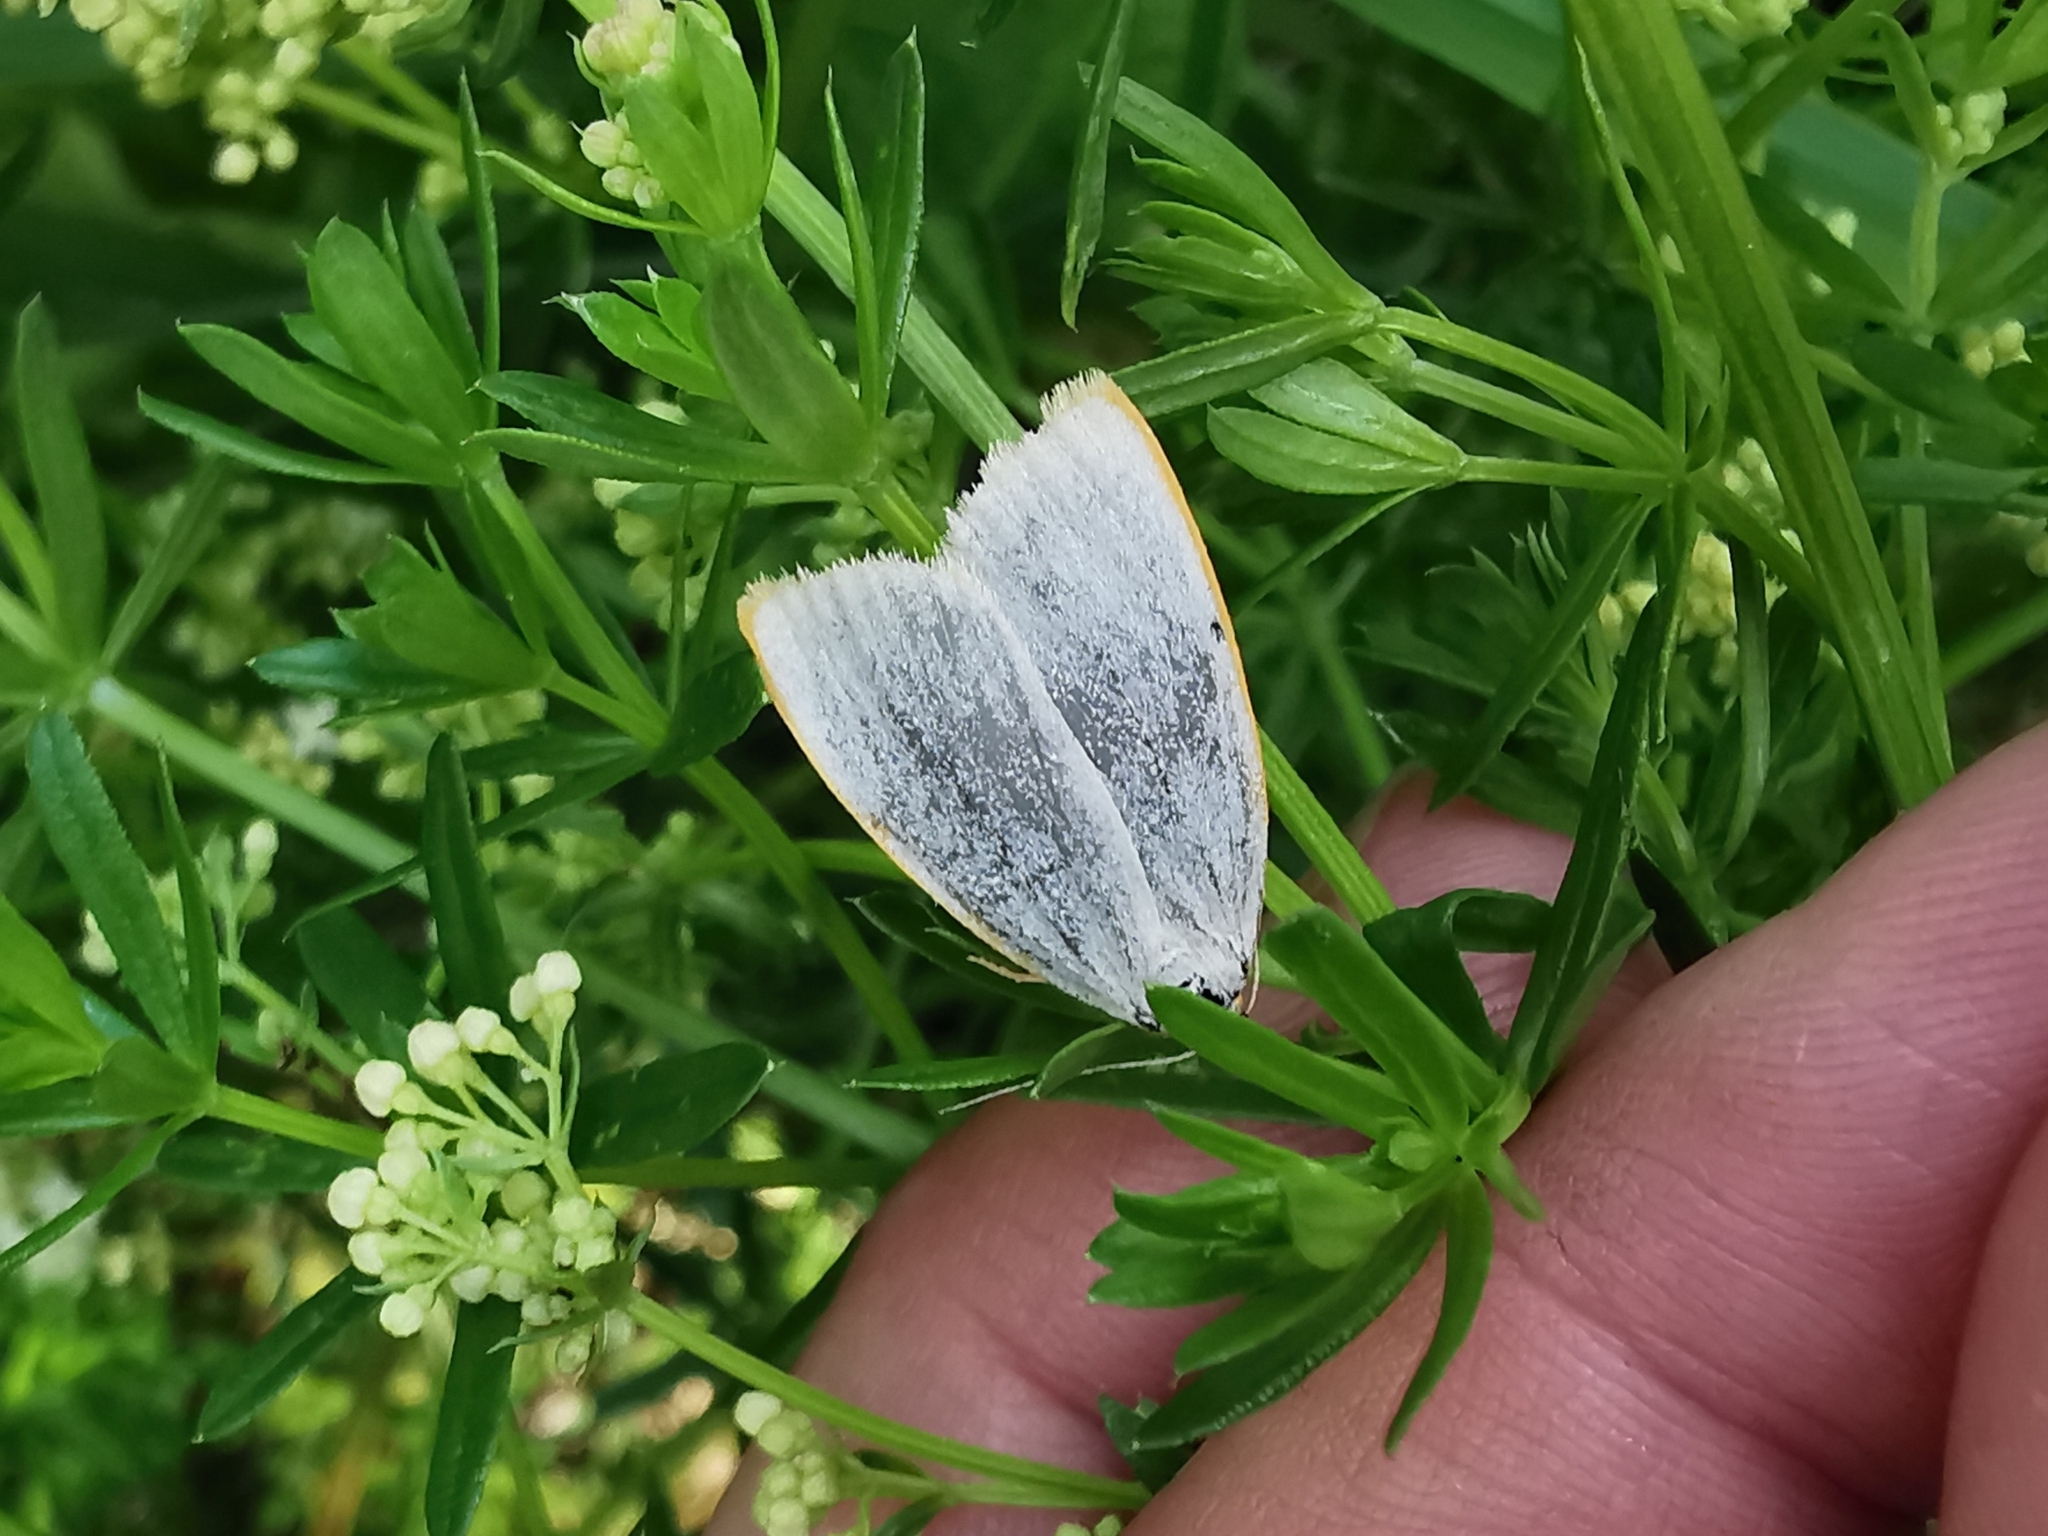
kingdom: Animalia
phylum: Arthropoda
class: Insecta
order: Lepidoptera
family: Erebidae
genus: Cybosia
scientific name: Cybosia mesomella
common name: Four-dotted footman
